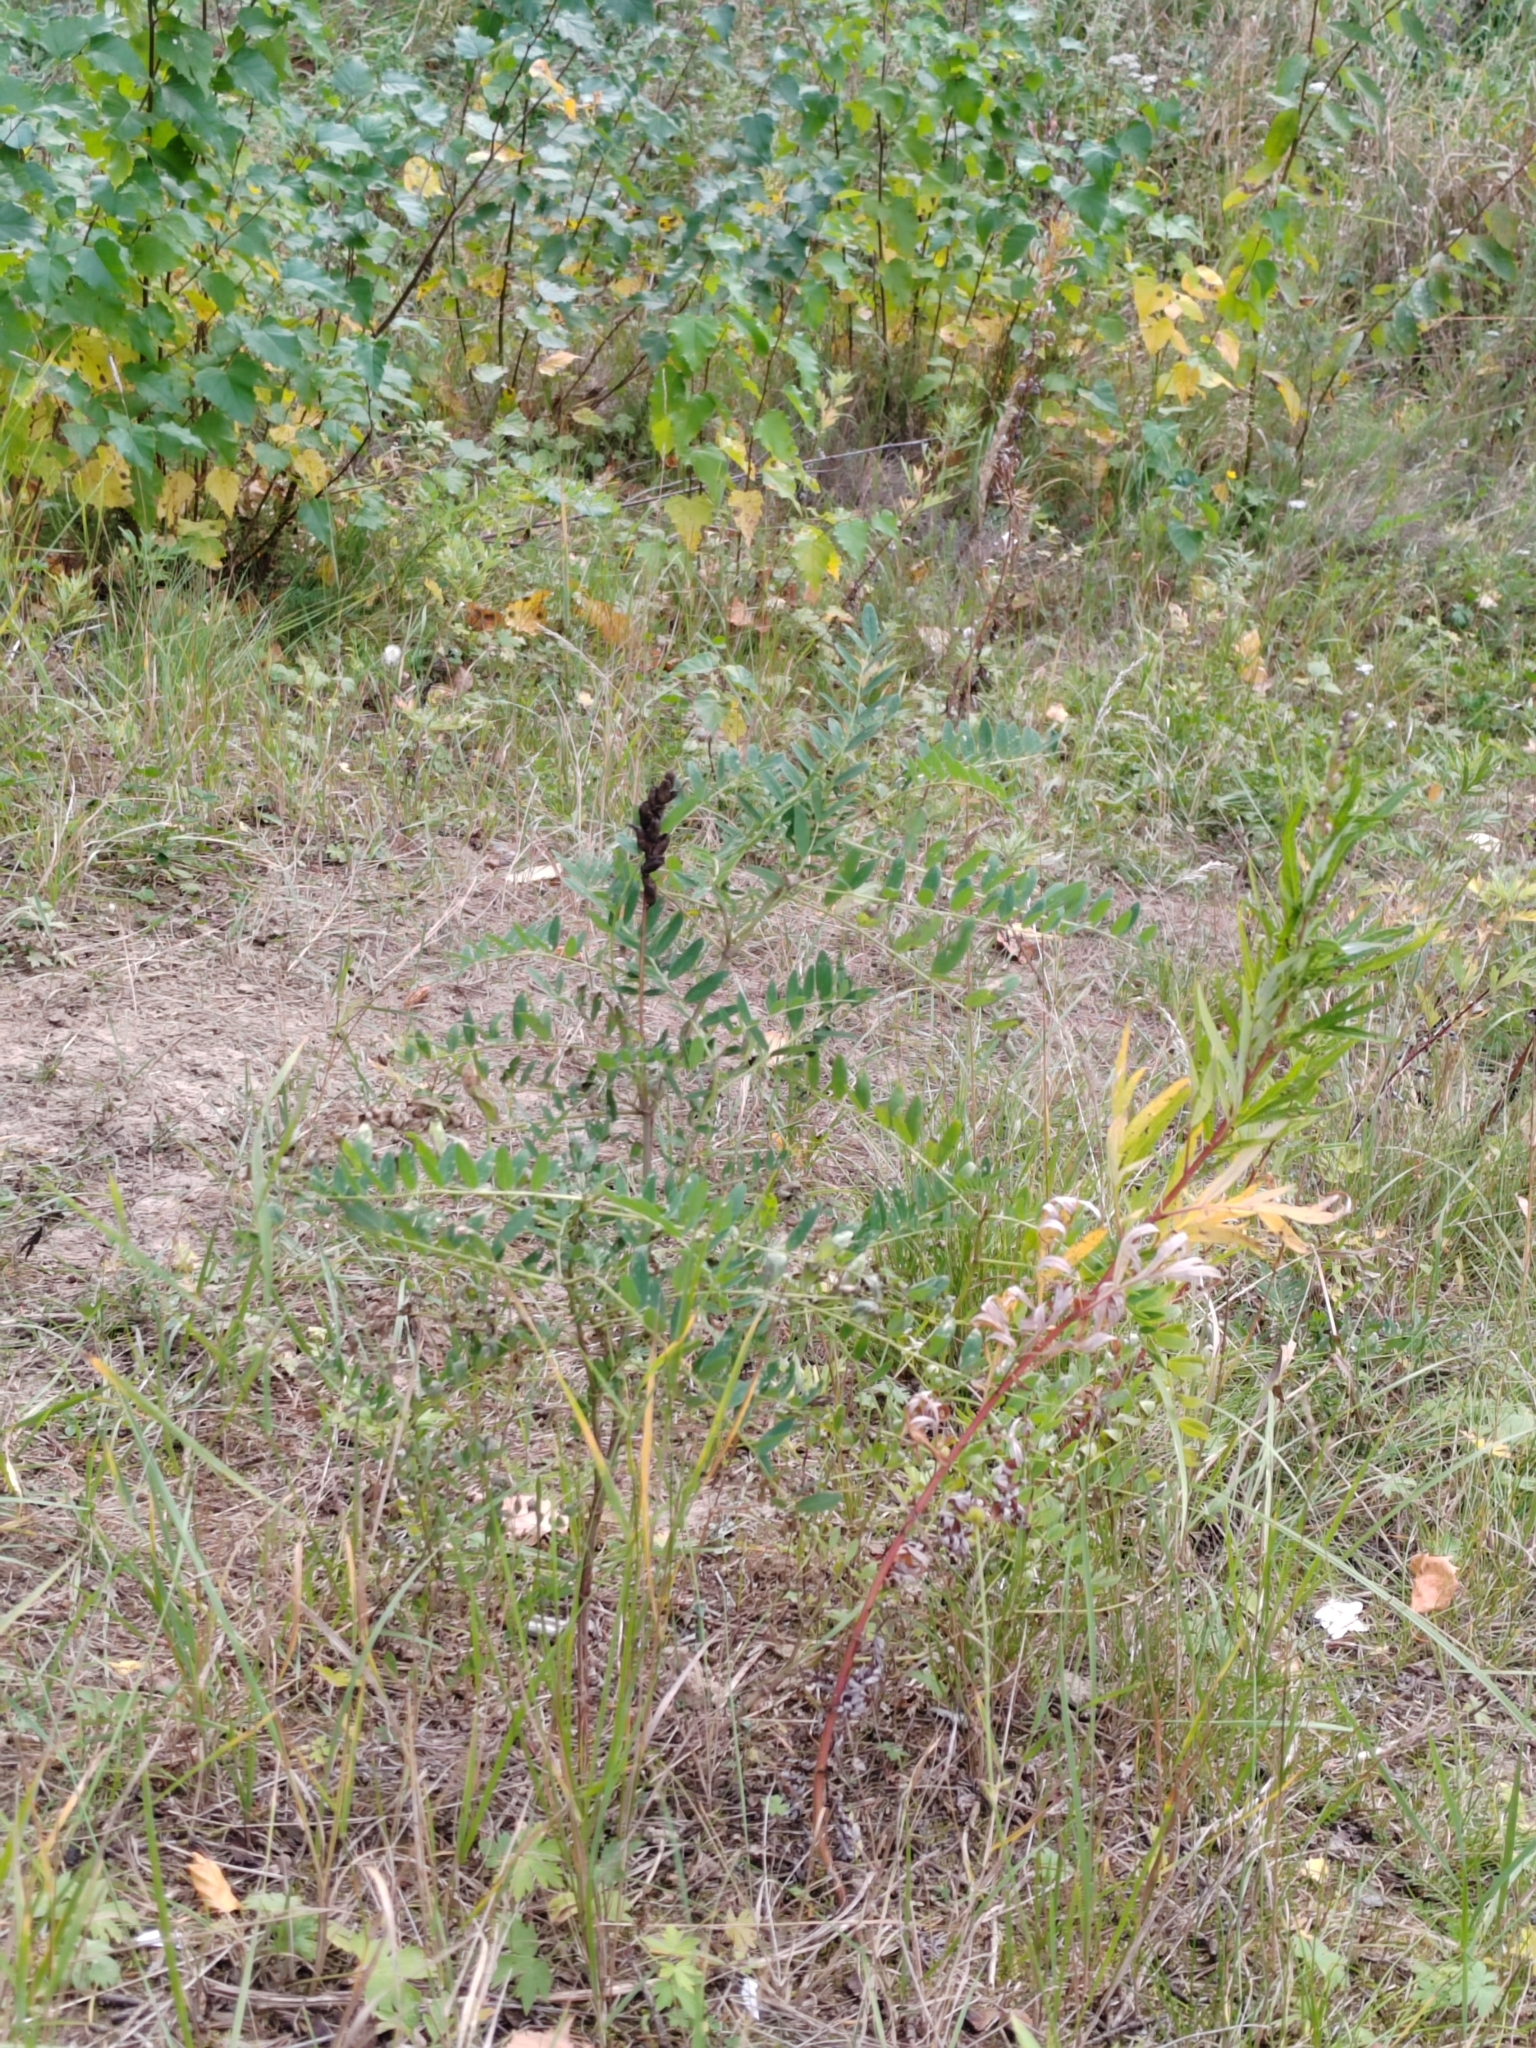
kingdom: Plantae
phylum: Tracheophyta
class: Magnoliopsida
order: Fabales
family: Fabaceae
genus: Astragalus
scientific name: Astragalus uliginosus
